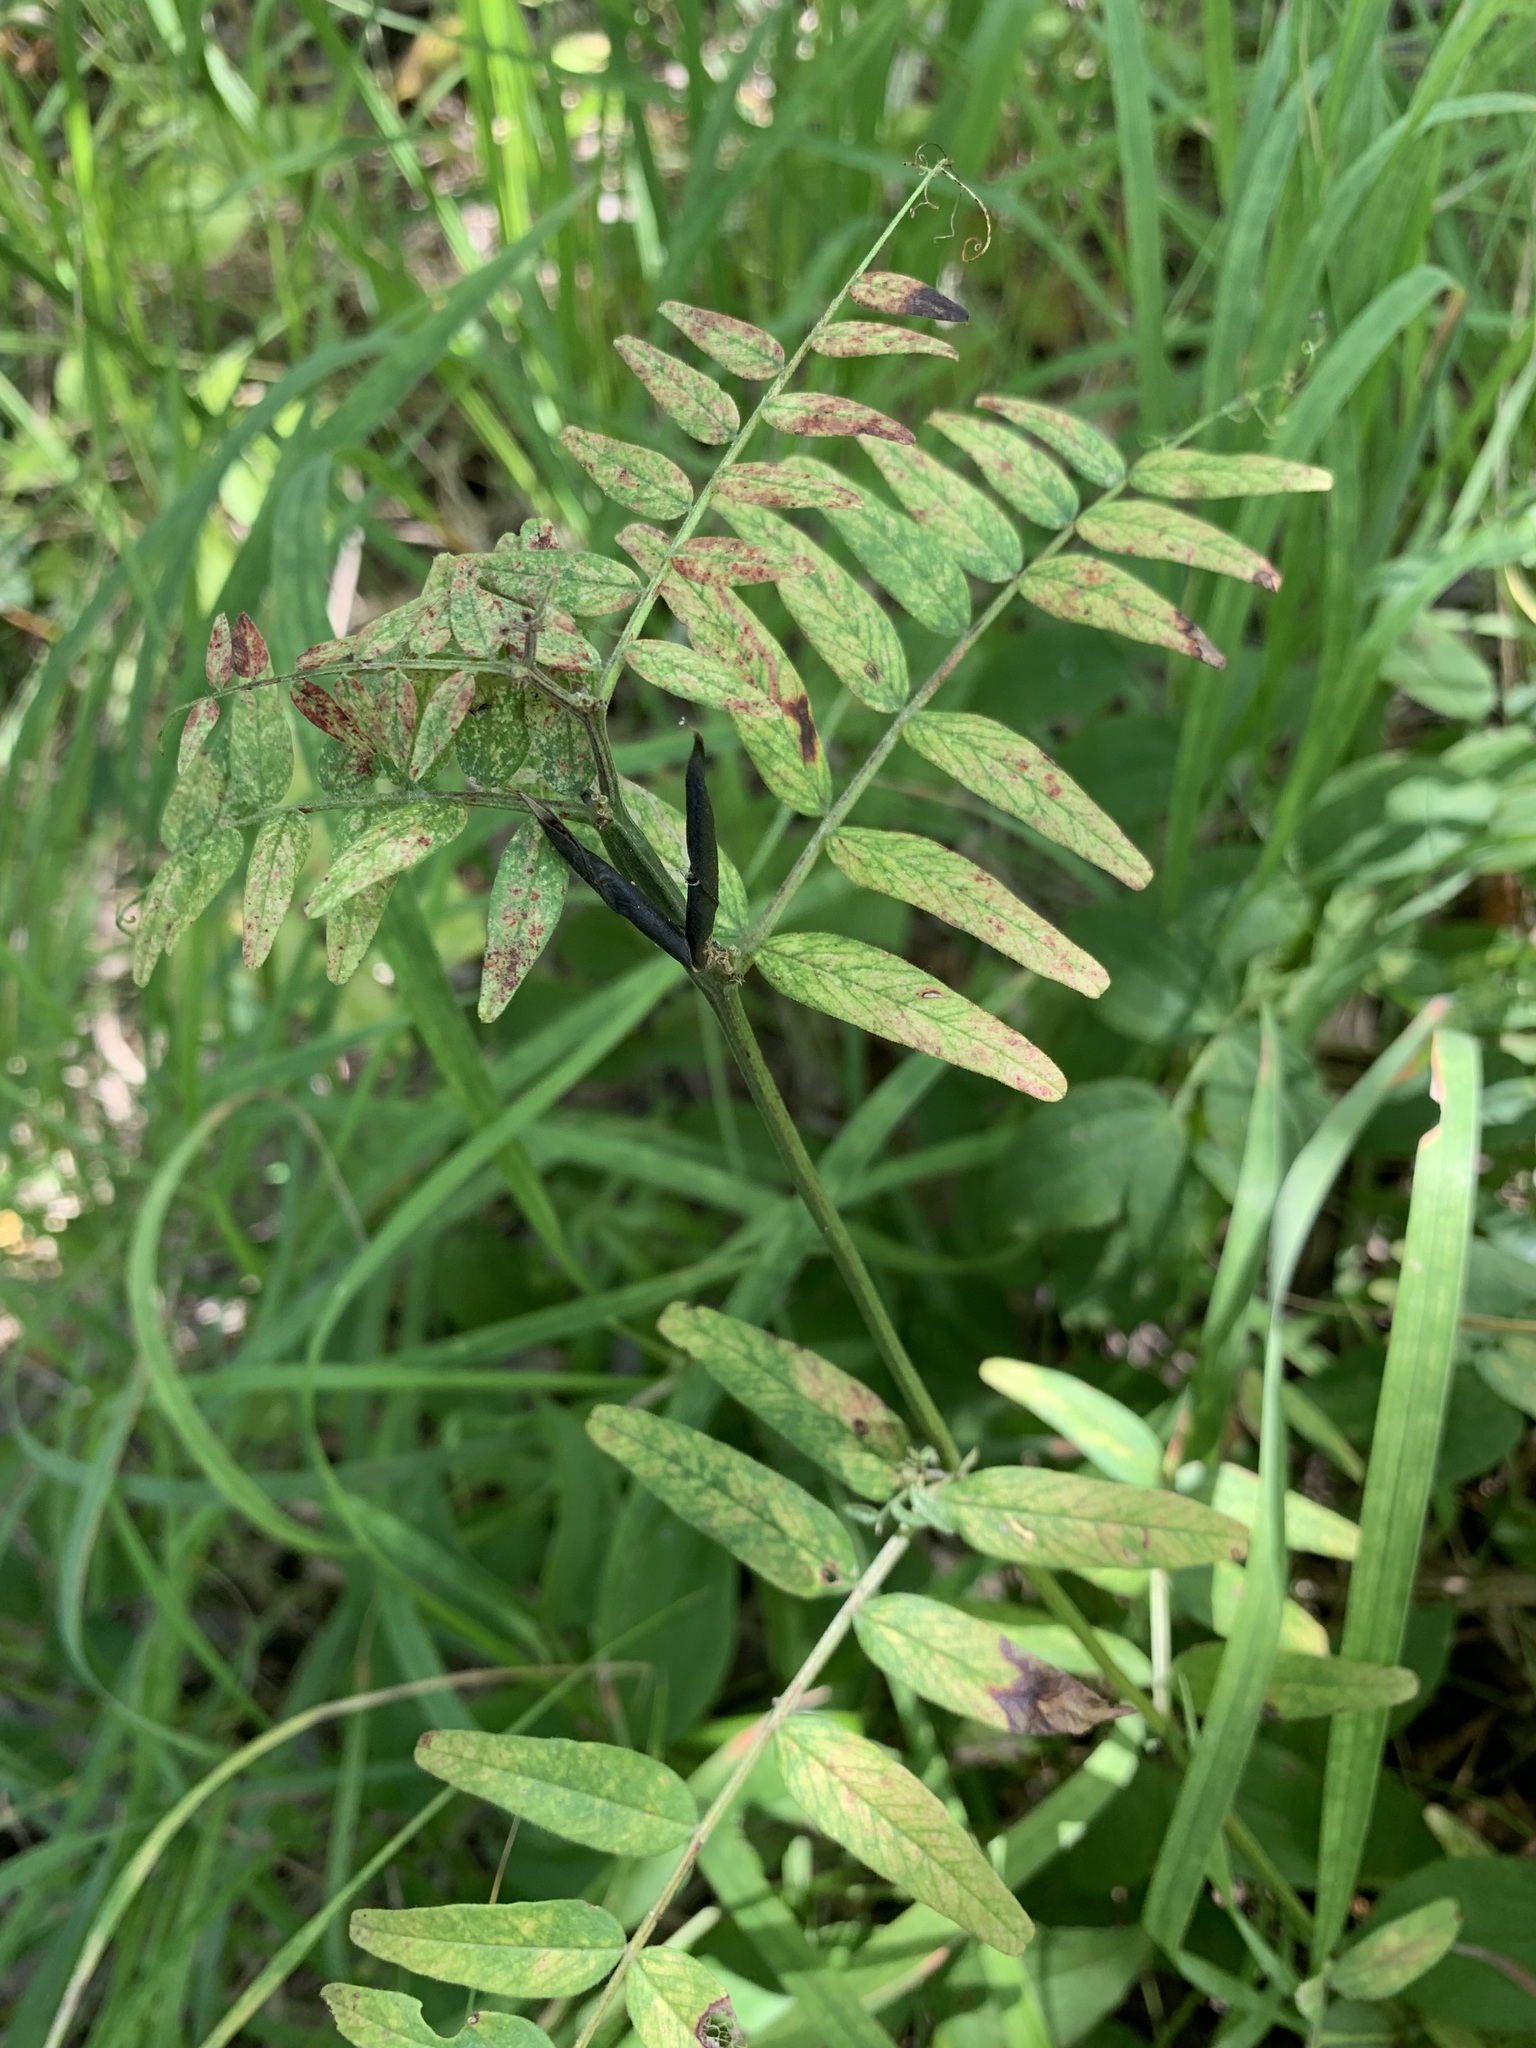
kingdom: Plantae
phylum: Tracheophyta
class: Magnoliopsida
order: Fabales
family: Fabaceae
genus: Vicia
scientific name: Vicia sepium
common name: Bush vetch
